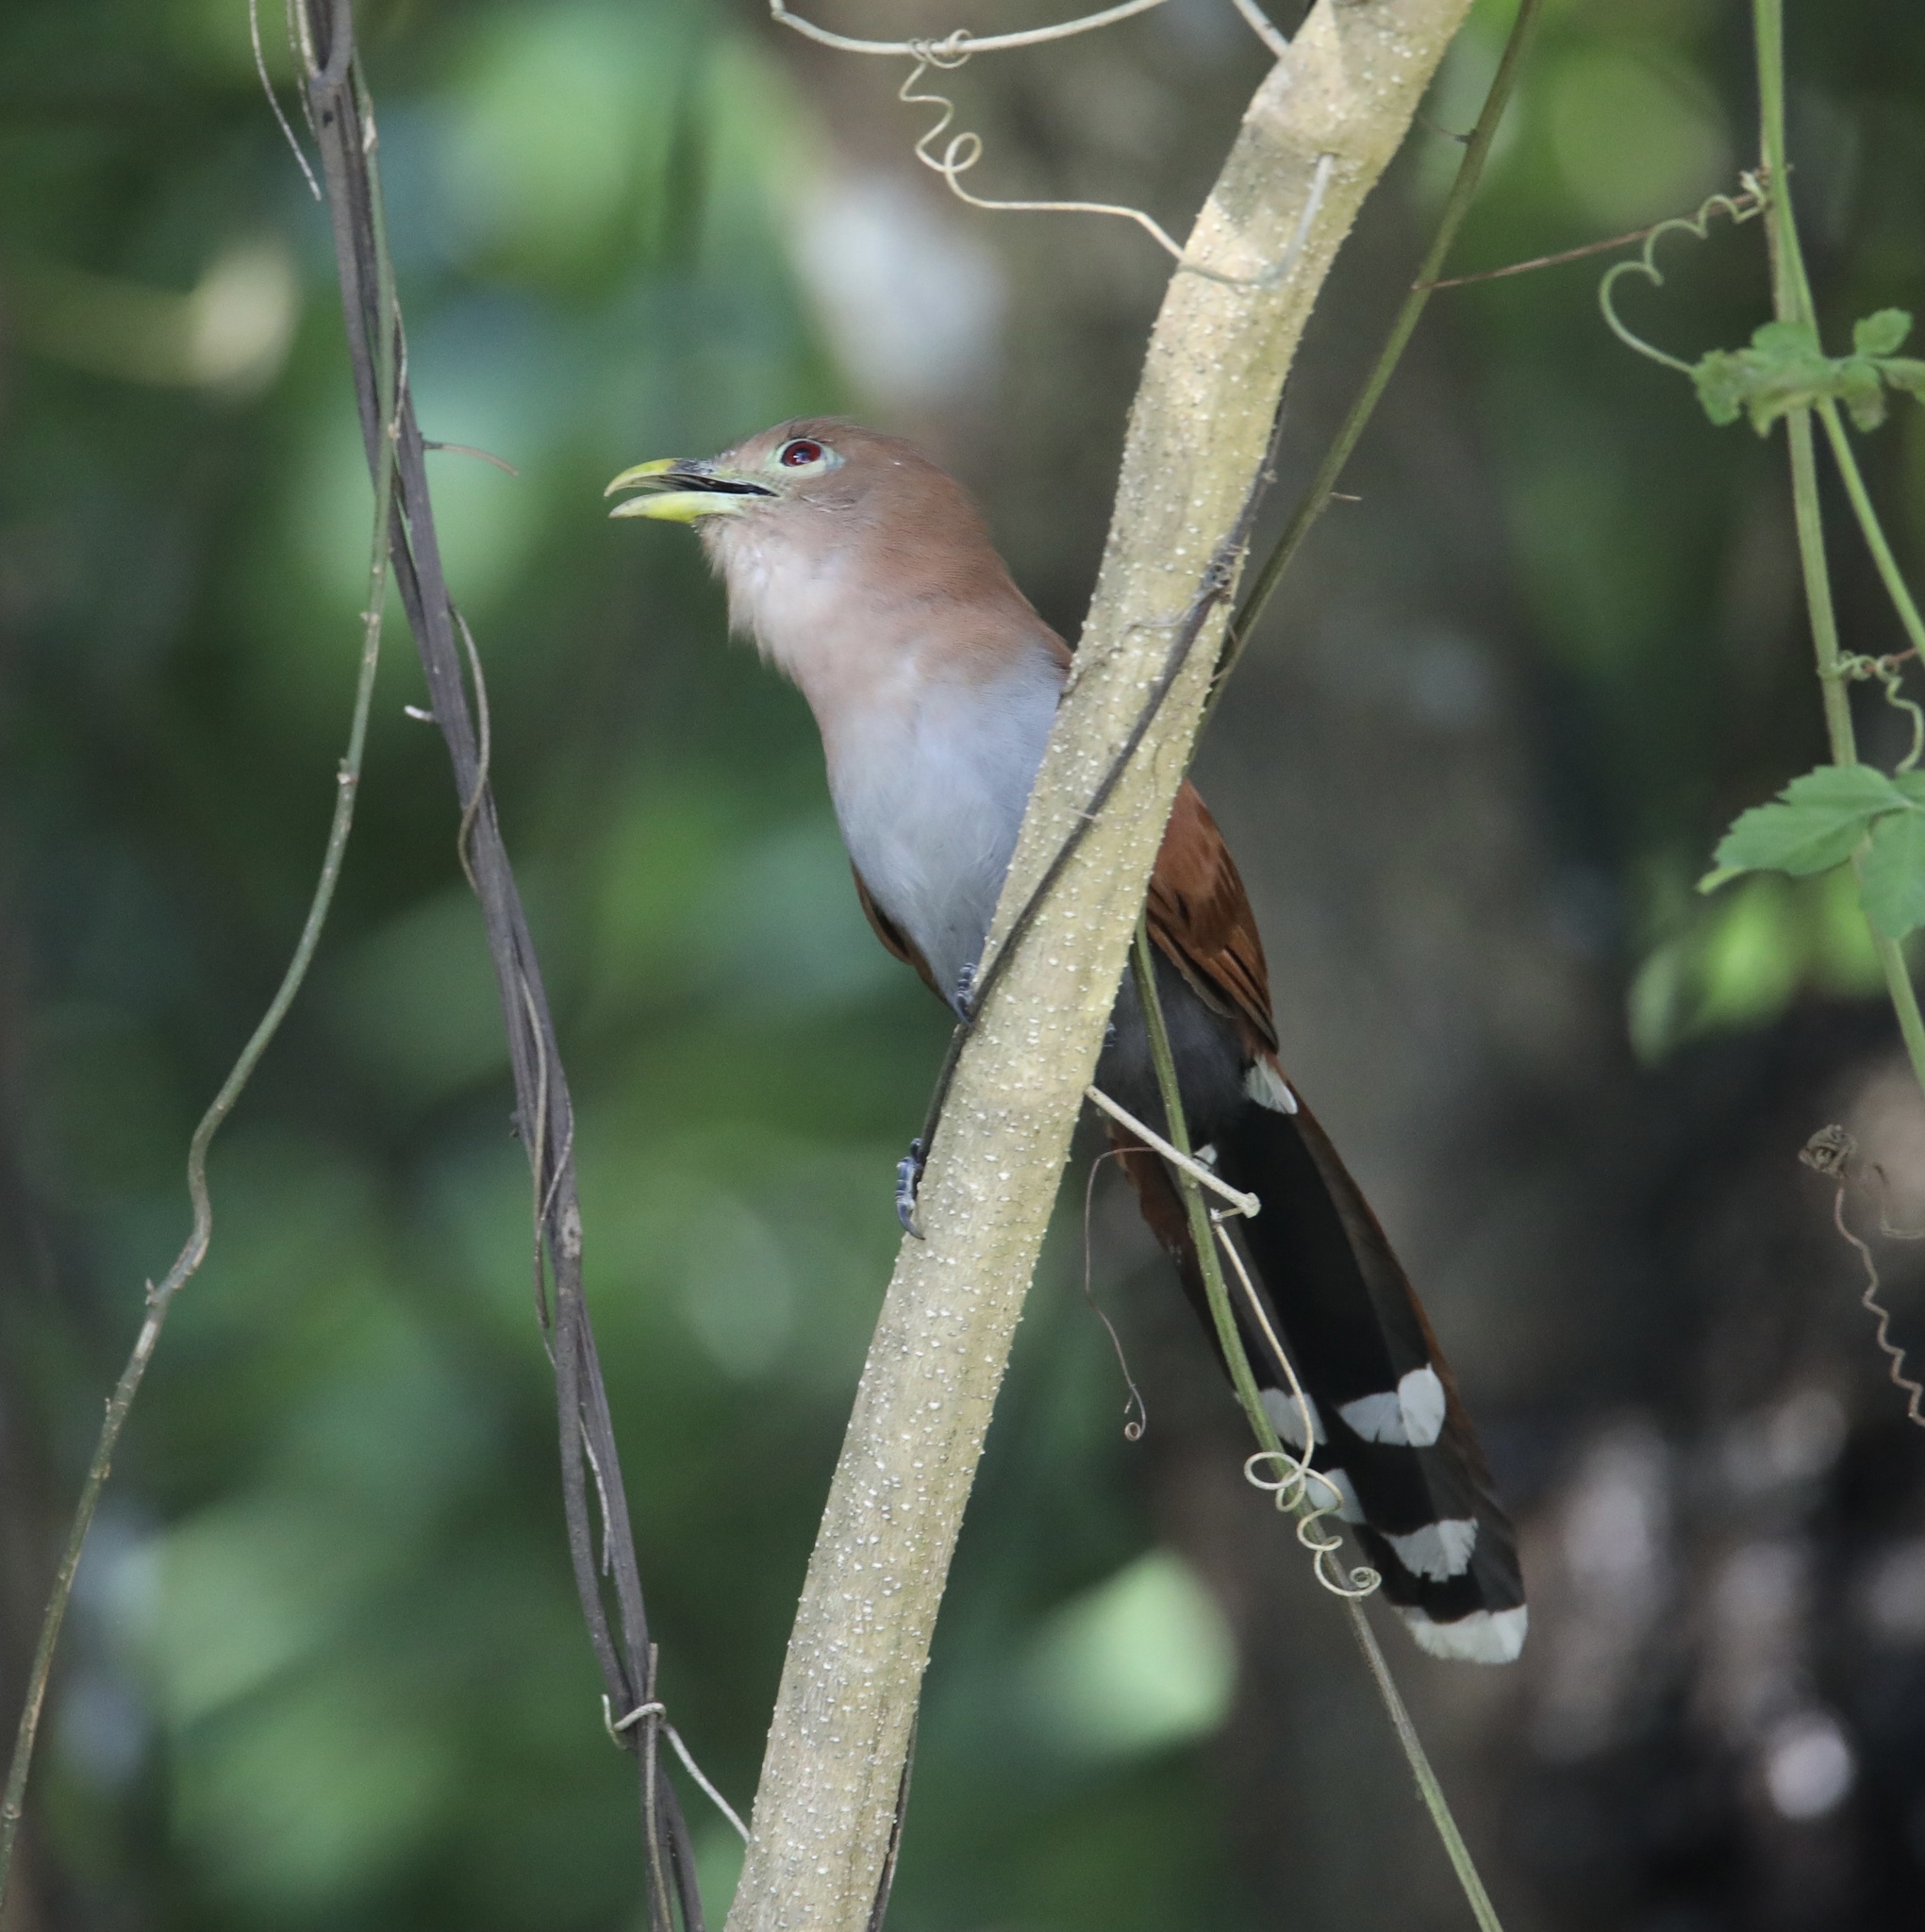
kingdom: Animalia
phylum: Chordata
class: Aves
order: Cuculiformes
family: Cuculidae
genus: Piaya
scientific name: Piaya cayana
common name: Squirrel cuckoo
